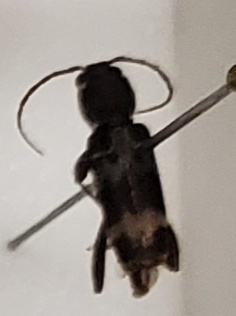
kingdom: Animalia
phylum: Arthropoda
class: Insecta
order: Coleoptera
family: Cerambycidae
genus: Xylotrechus
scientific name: Xylotrechus colonus
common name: Long-horned beetle
